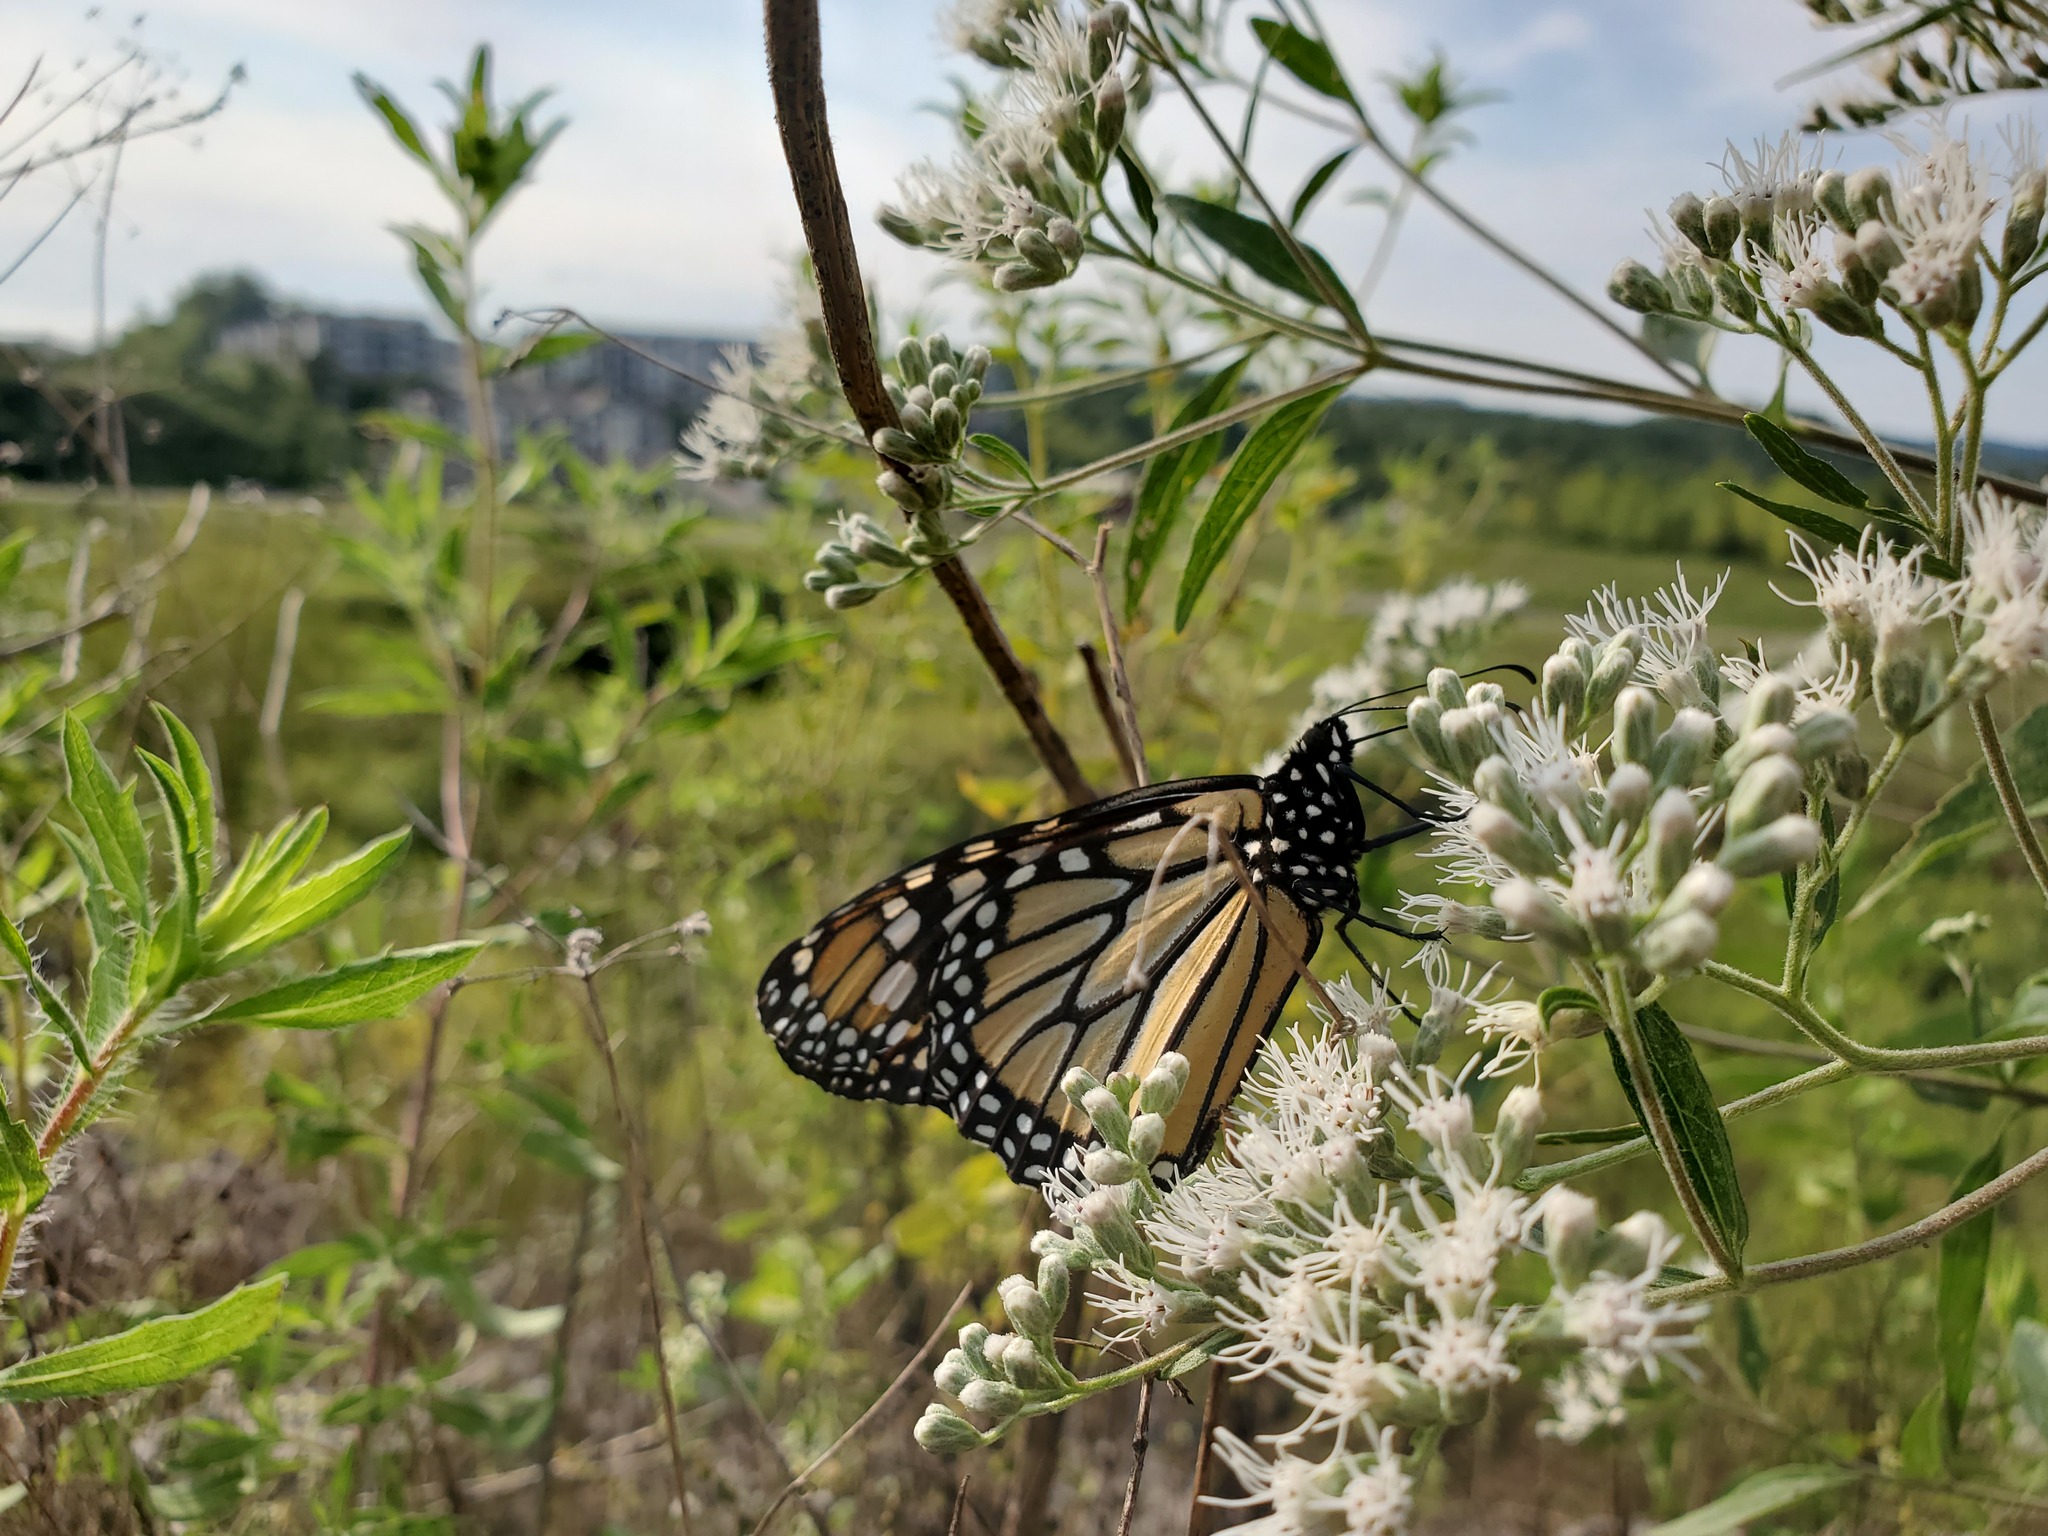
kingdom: Animalia
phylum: Arthropoda
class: Insecta
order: Lepidoptera
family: Nymphalidae
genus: Danaus
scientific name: Danaus plexippus
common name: Monarch
